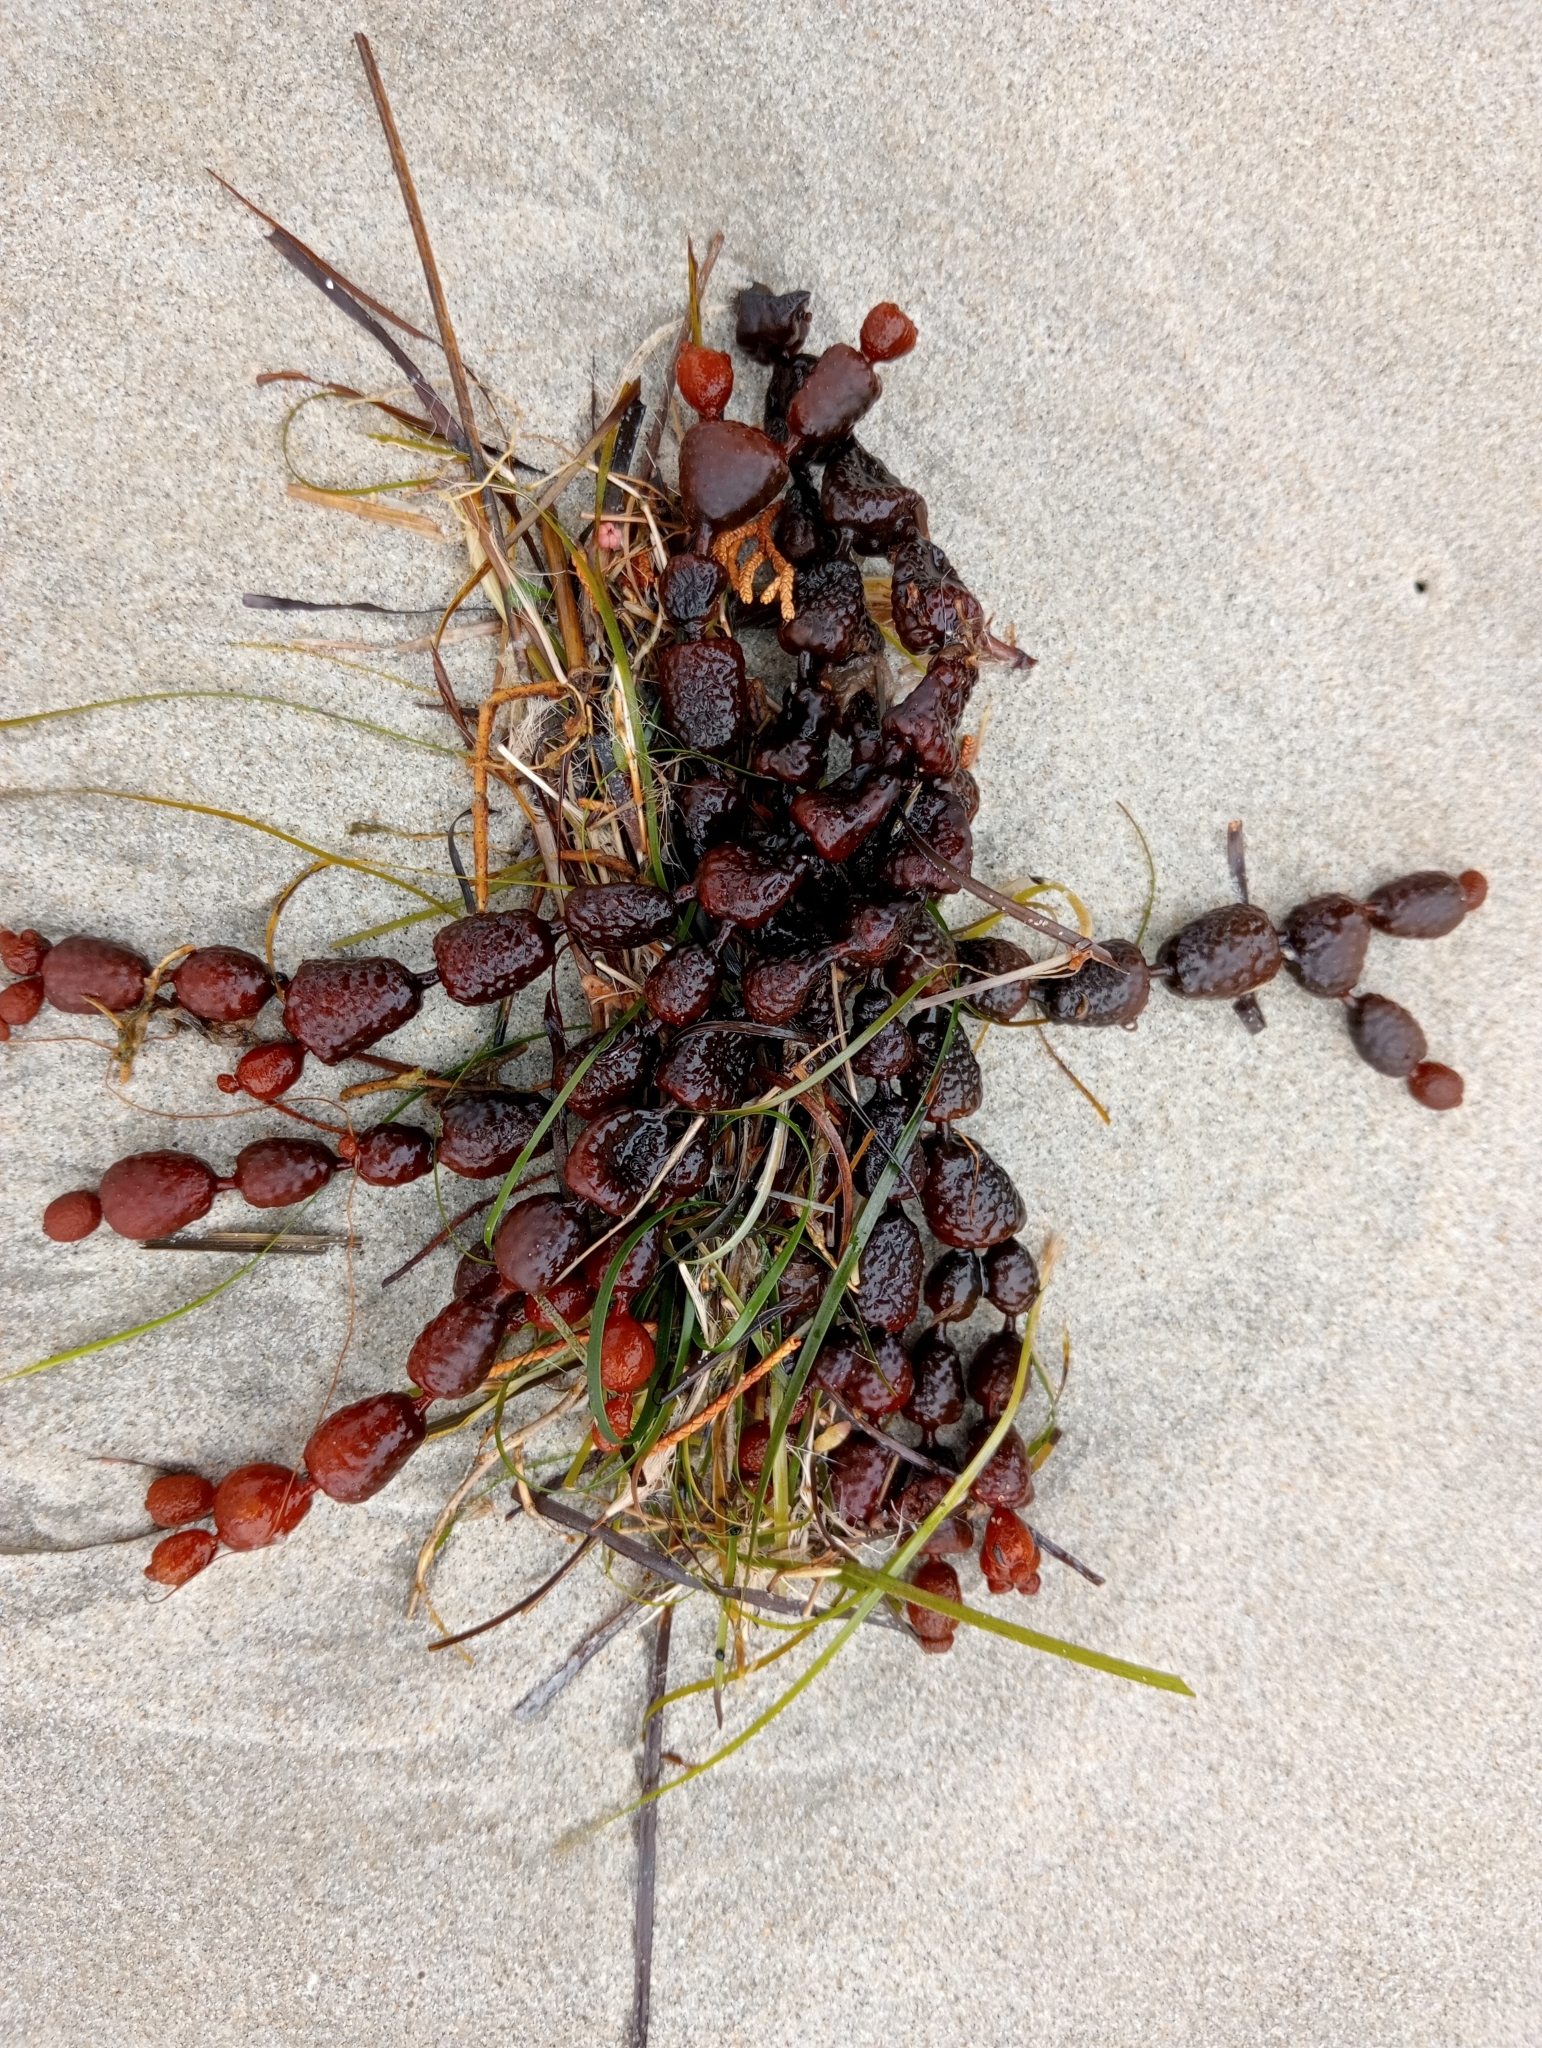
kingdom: Chromista
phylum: Ochrophyta
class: Phaeophyceae
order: Fucales
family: Hormosiraceae
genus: Hormosira
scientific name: Hormosira banksii
